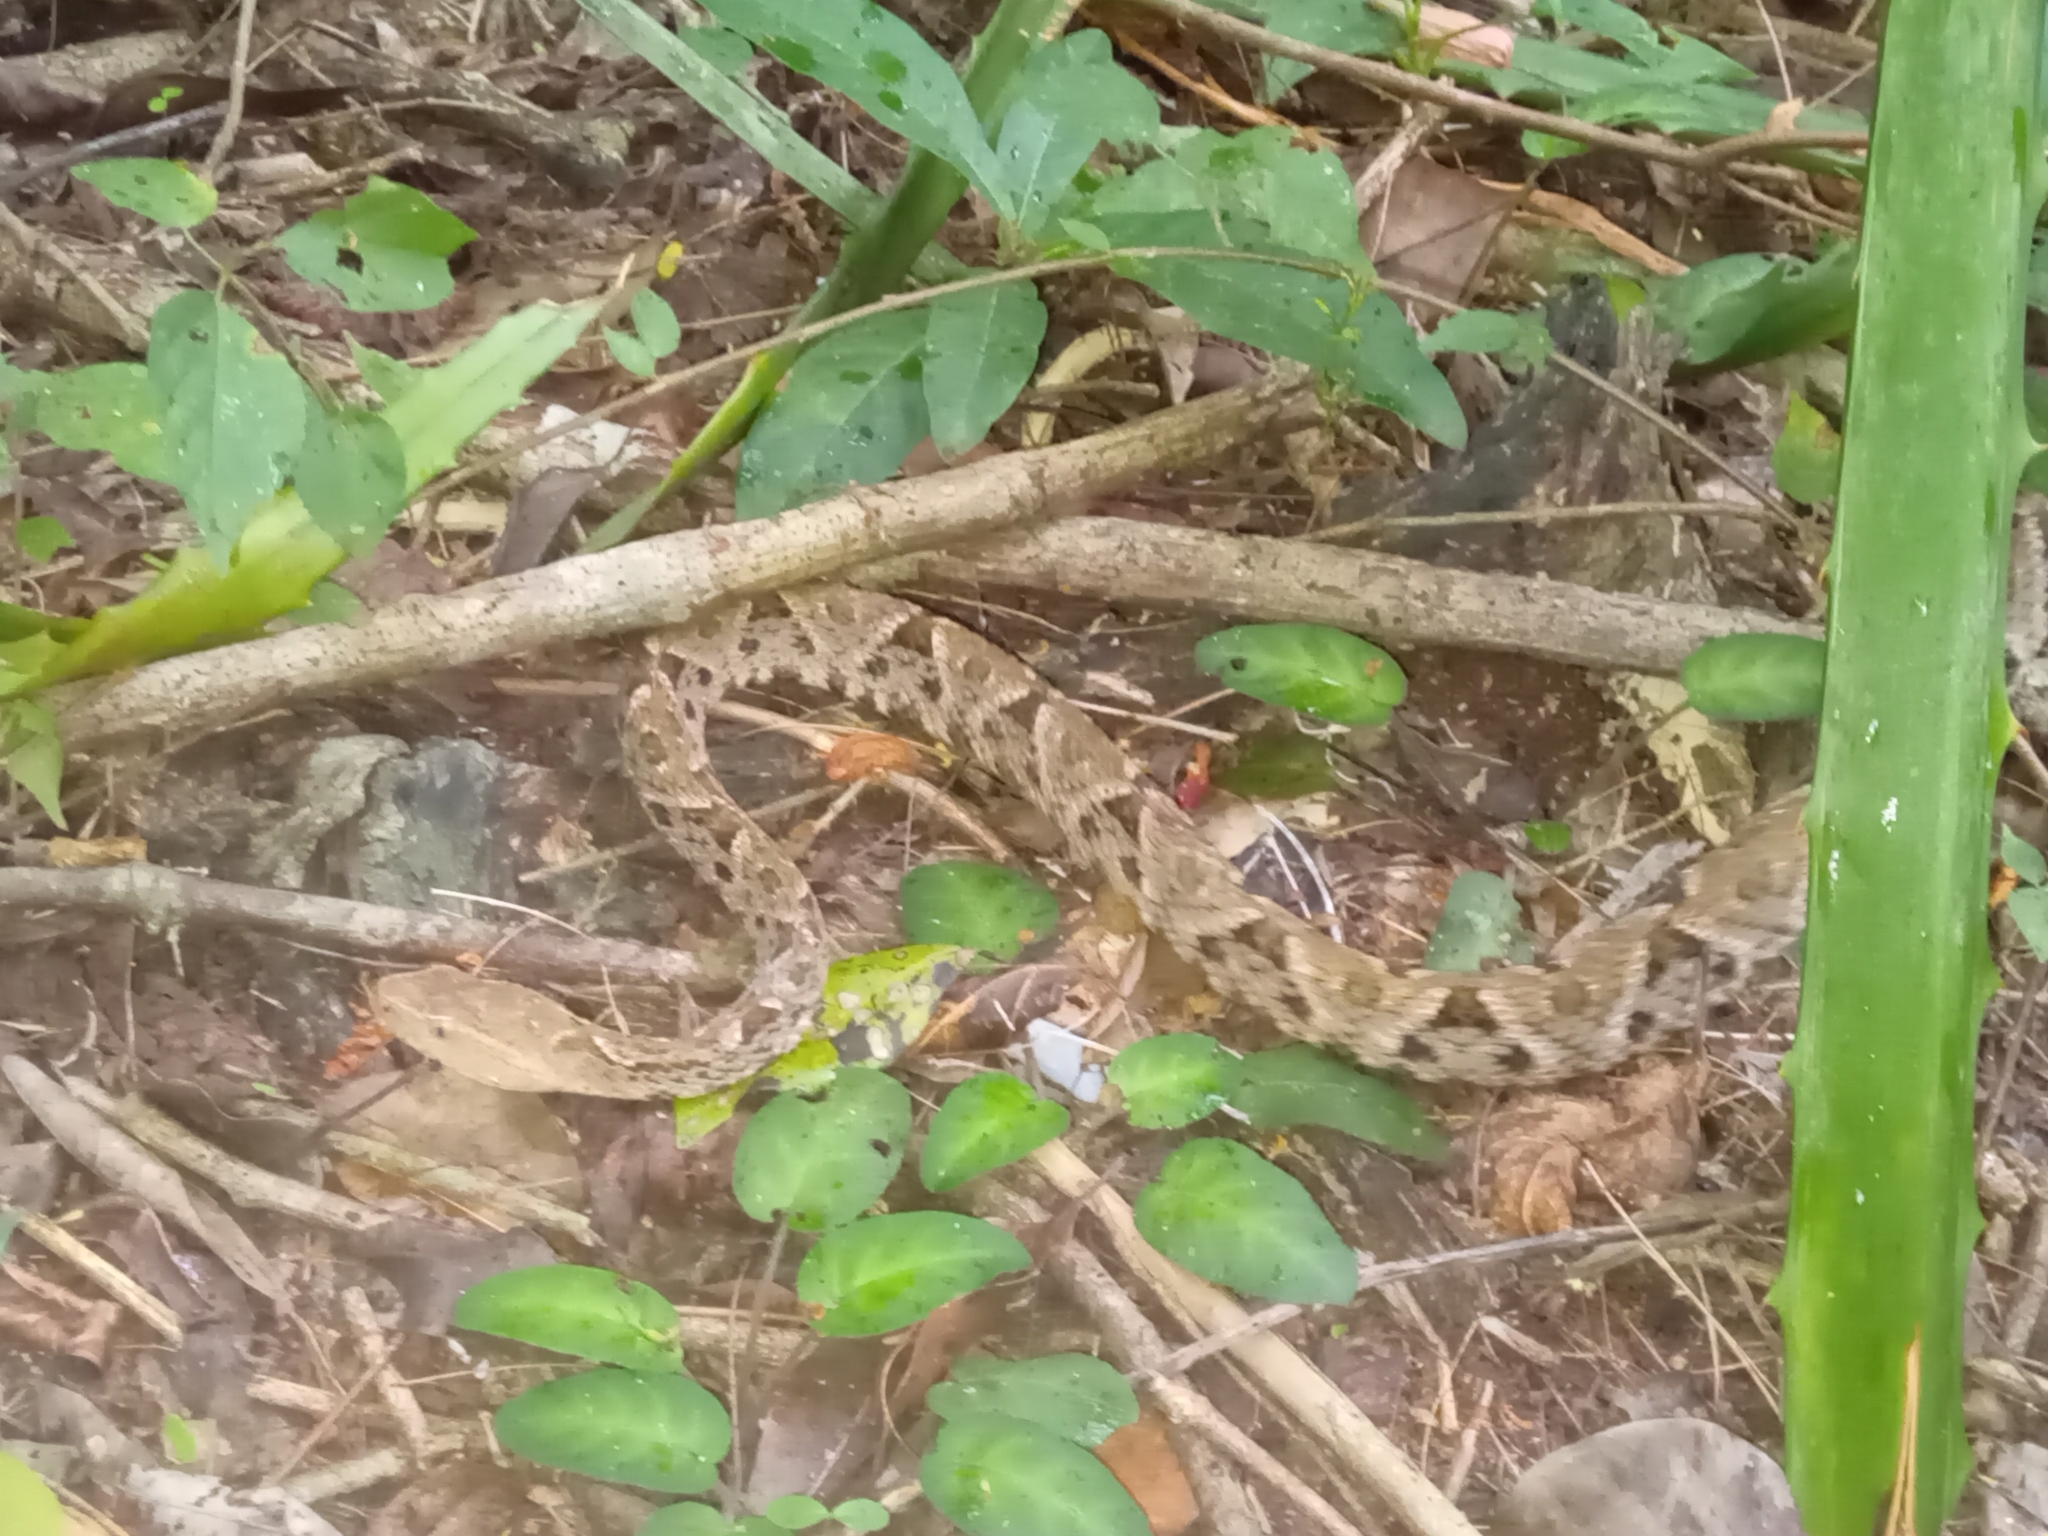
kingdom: Animalia
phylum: Chordata
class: Squamata
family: Viperidae
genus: Bothrops
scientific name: Bothrops asper
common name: Terciopelo
